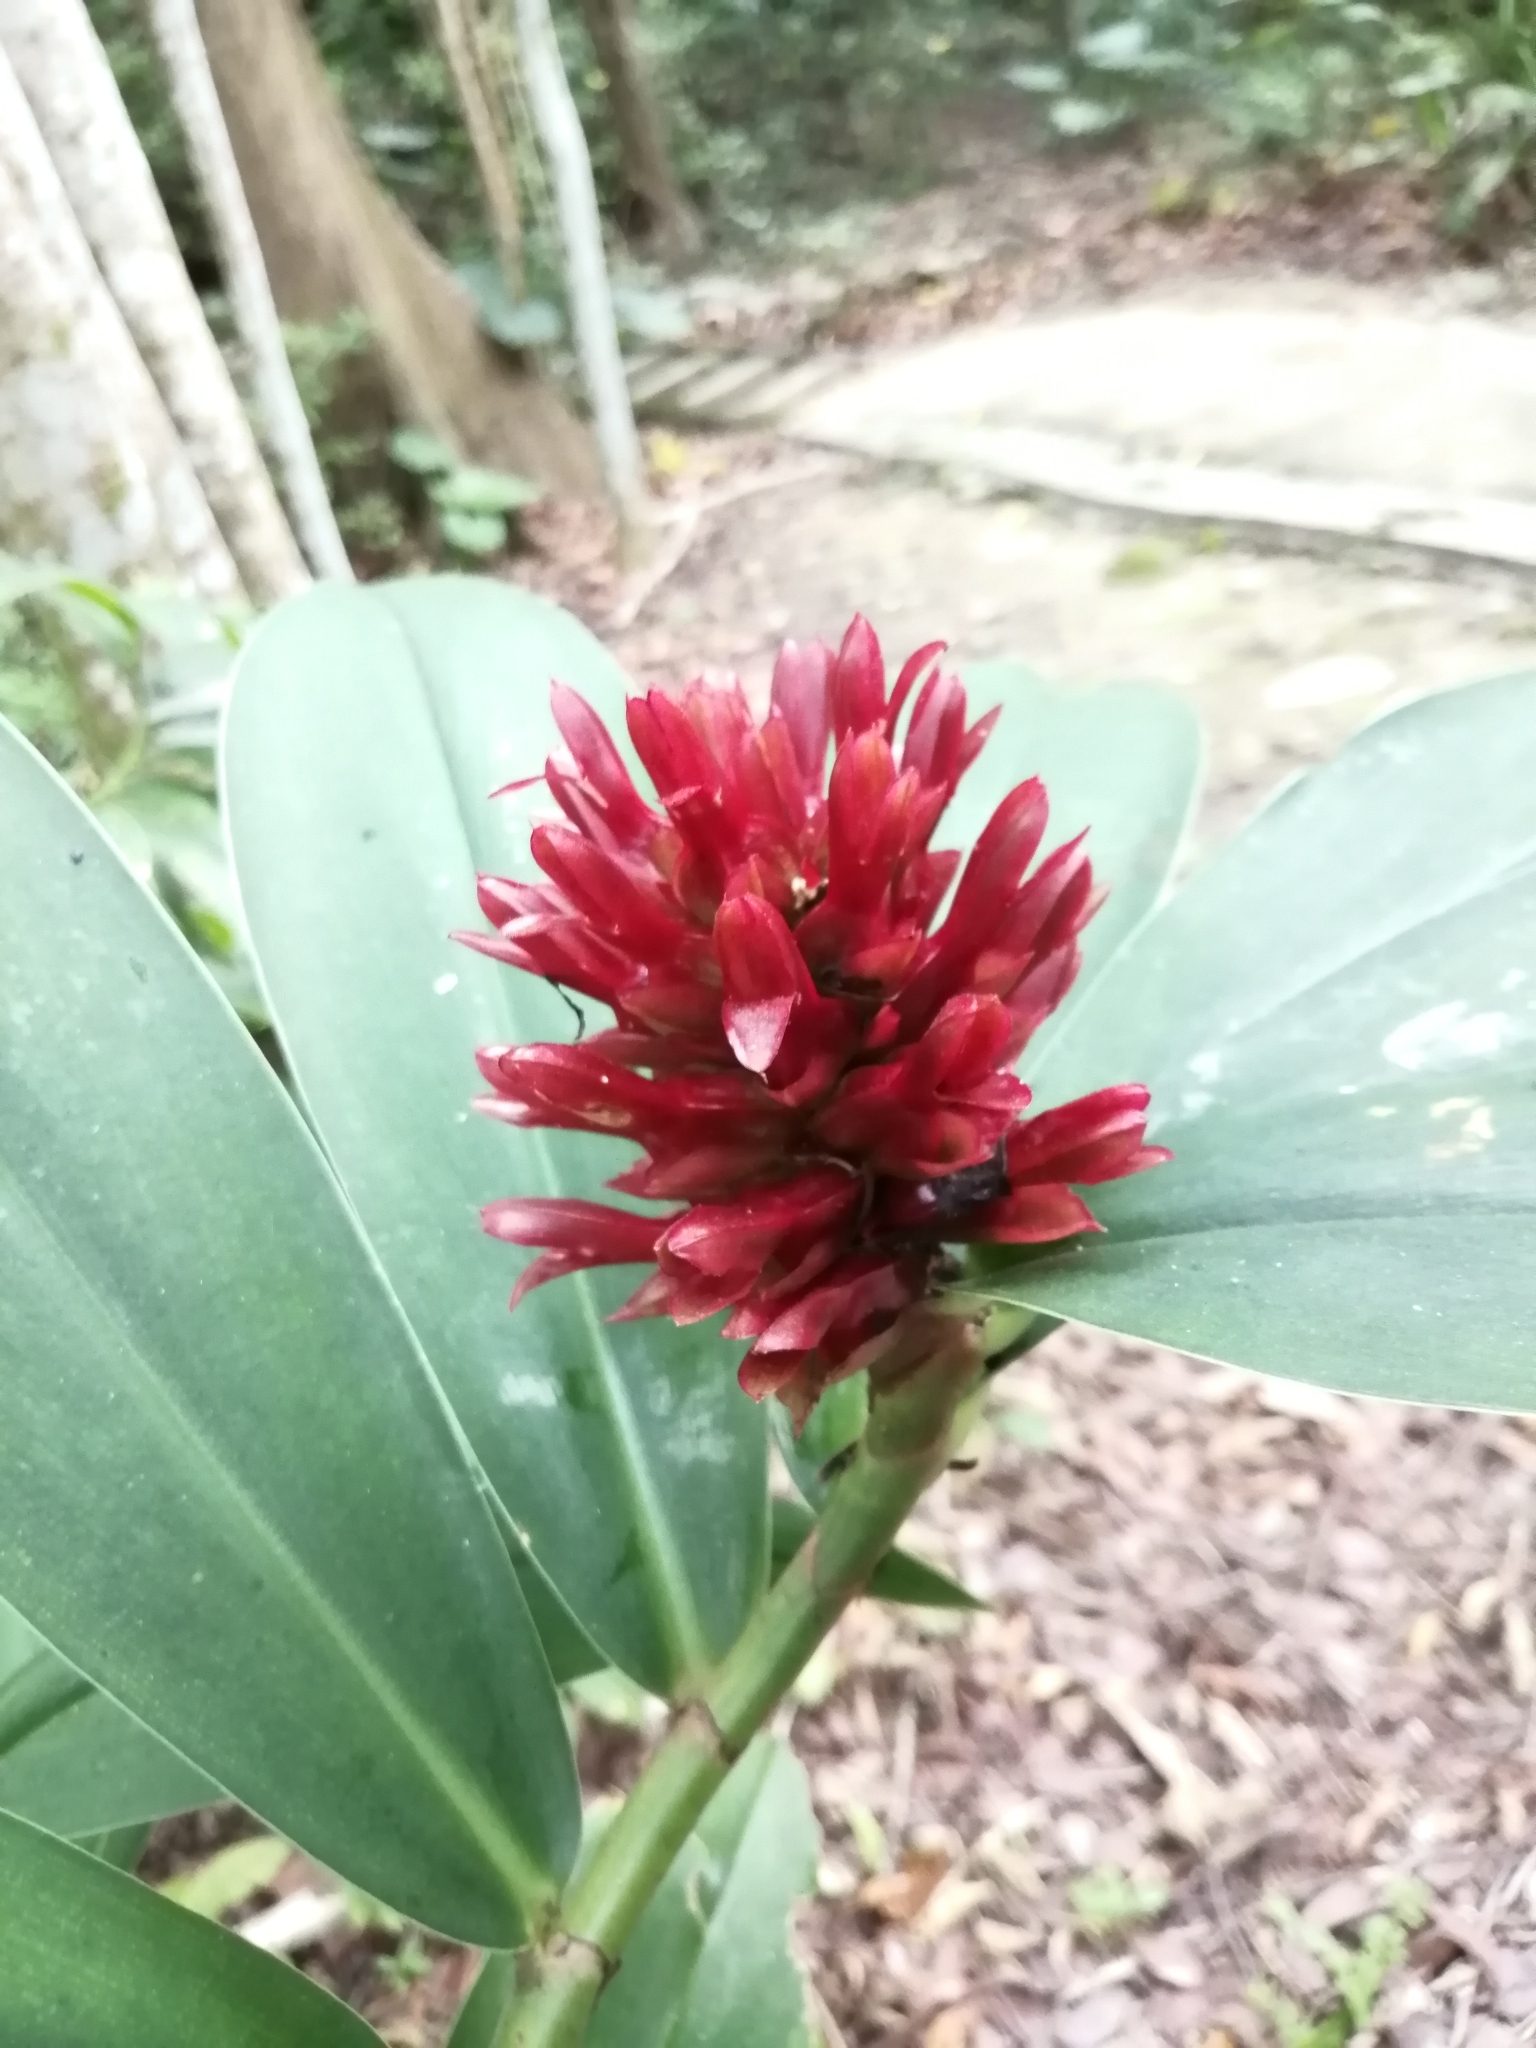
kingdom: Plantae
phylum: Tracheophyta
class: Liliopsida
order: Zingiberales
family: Costaceae
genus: Hellenia
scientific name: Hellenia speciosa
